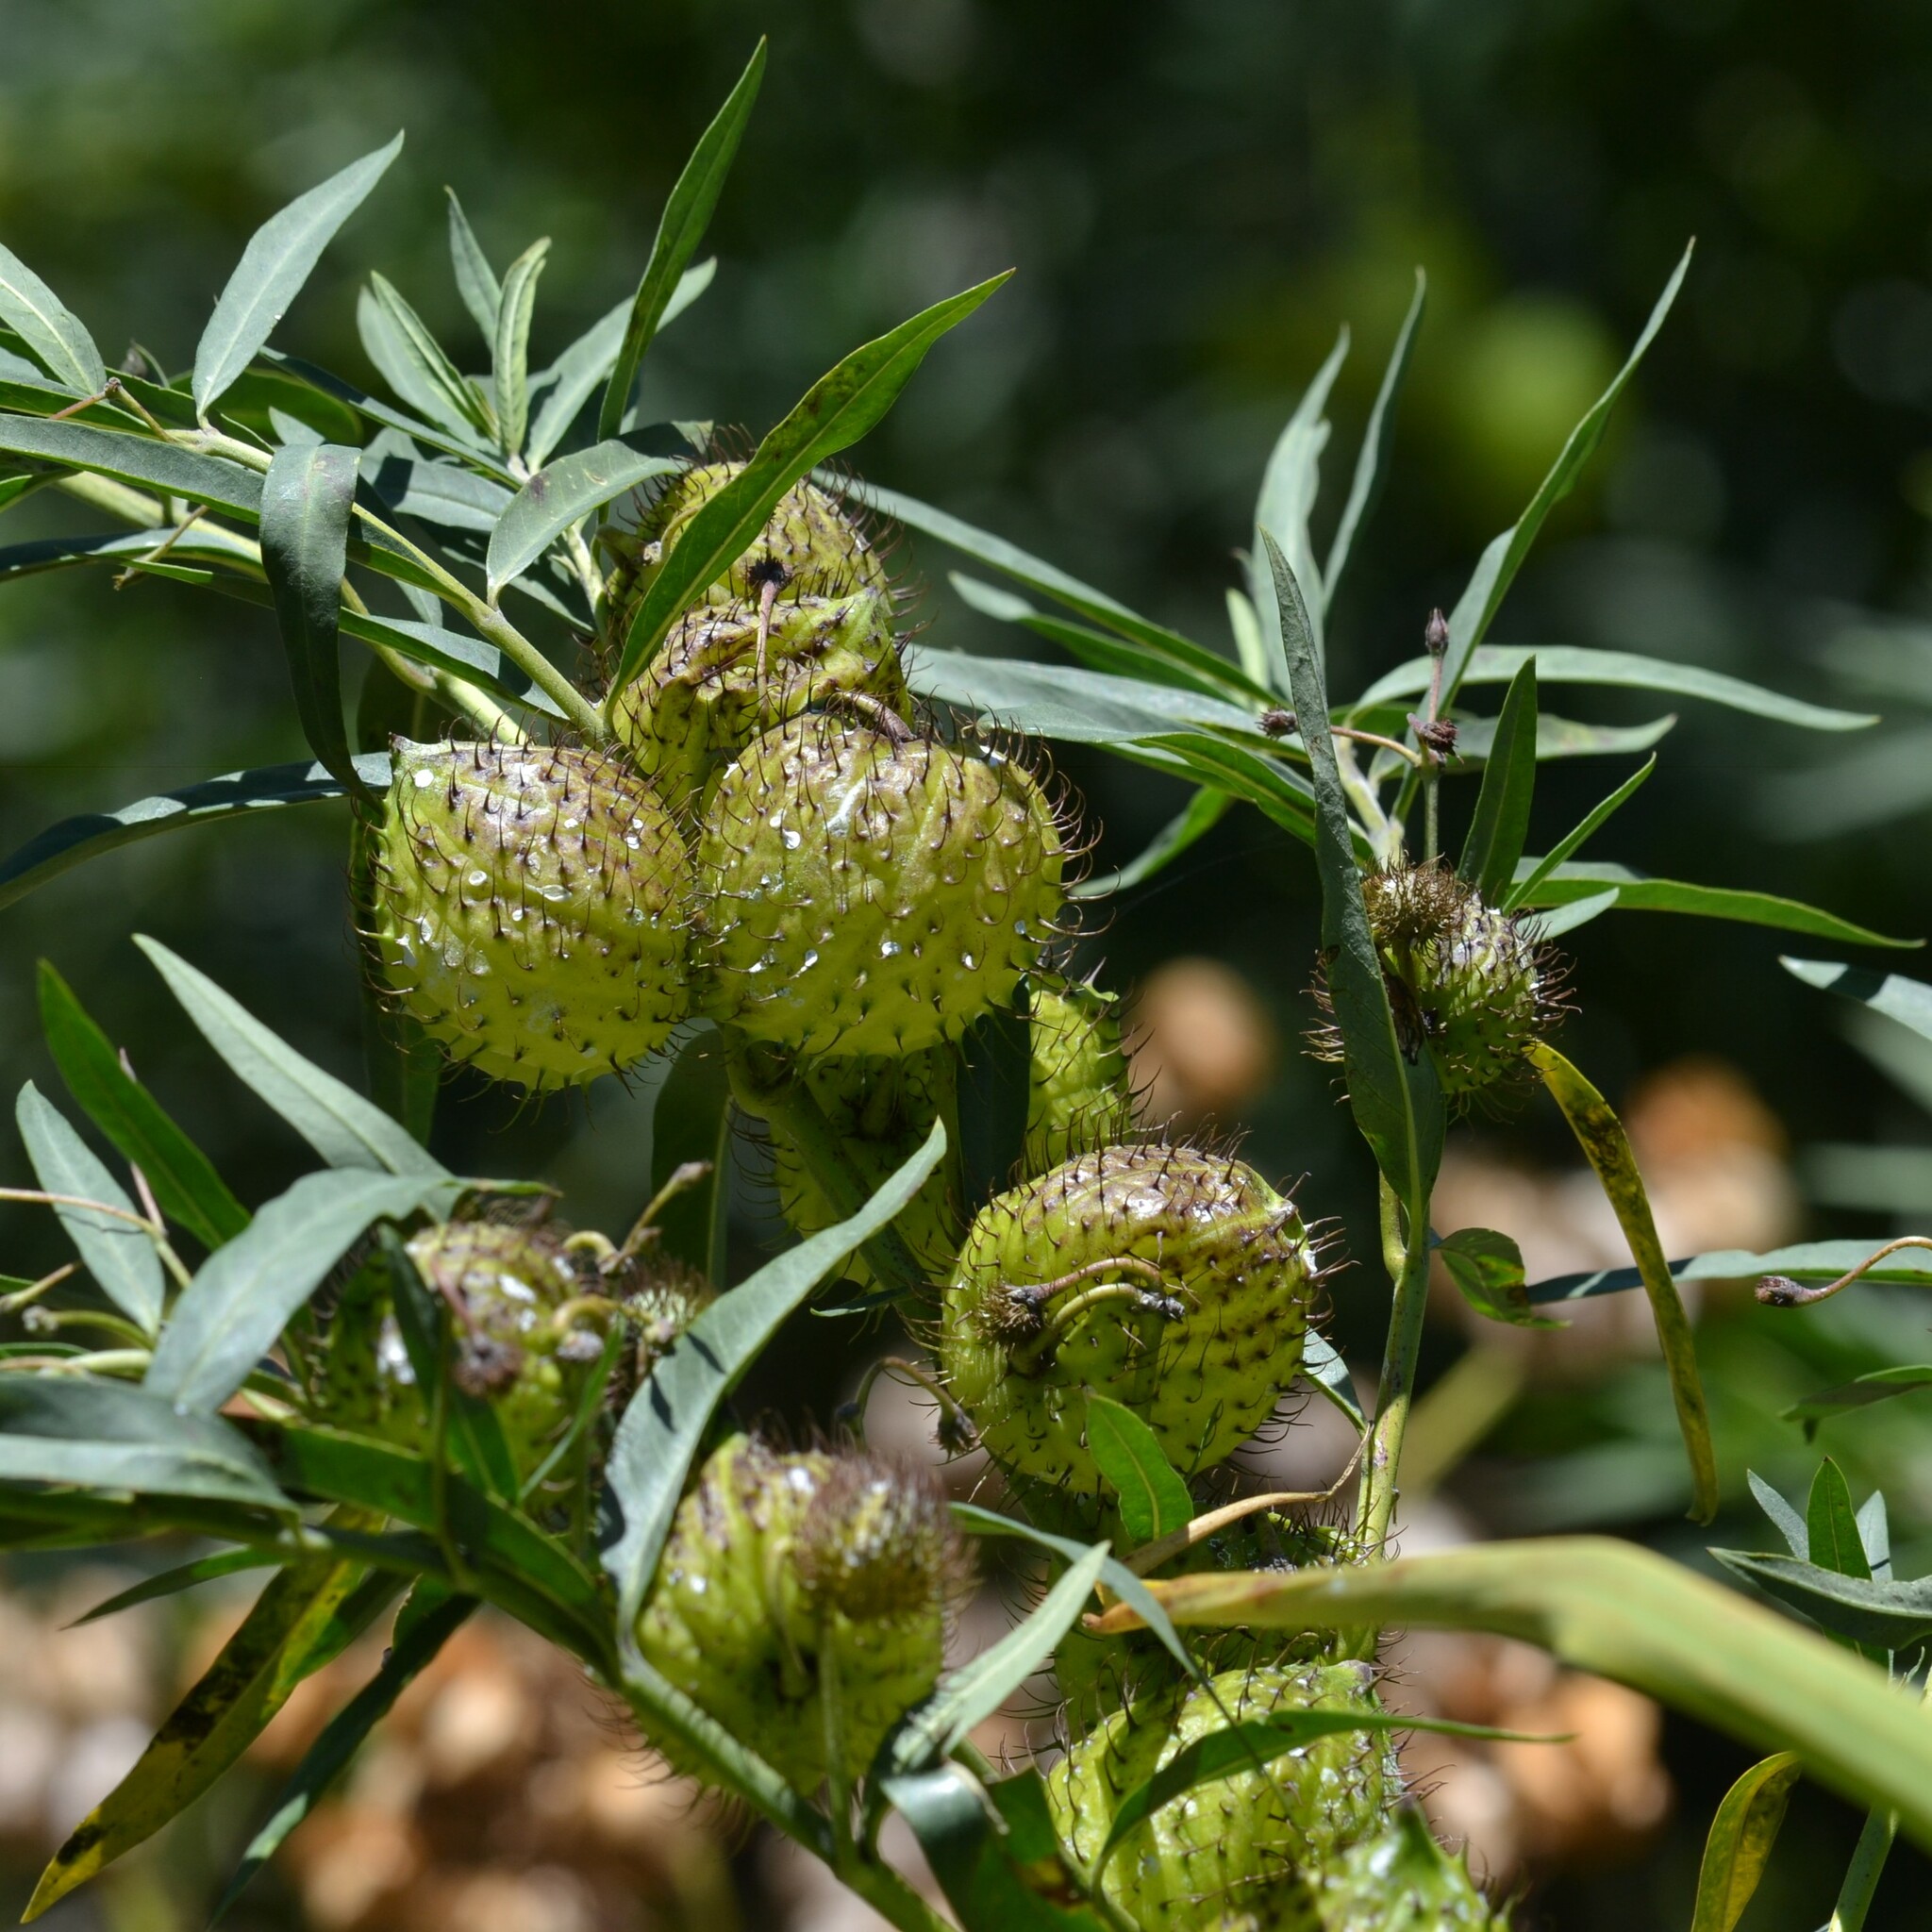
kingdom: Plantae
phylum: Tracheophyta
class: Magnoliopsida
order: Gentianales
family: Apocynaceae
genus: Gomphocarpus
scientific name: Gomphocarpus physocarpus
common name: Balloon cotton bush
